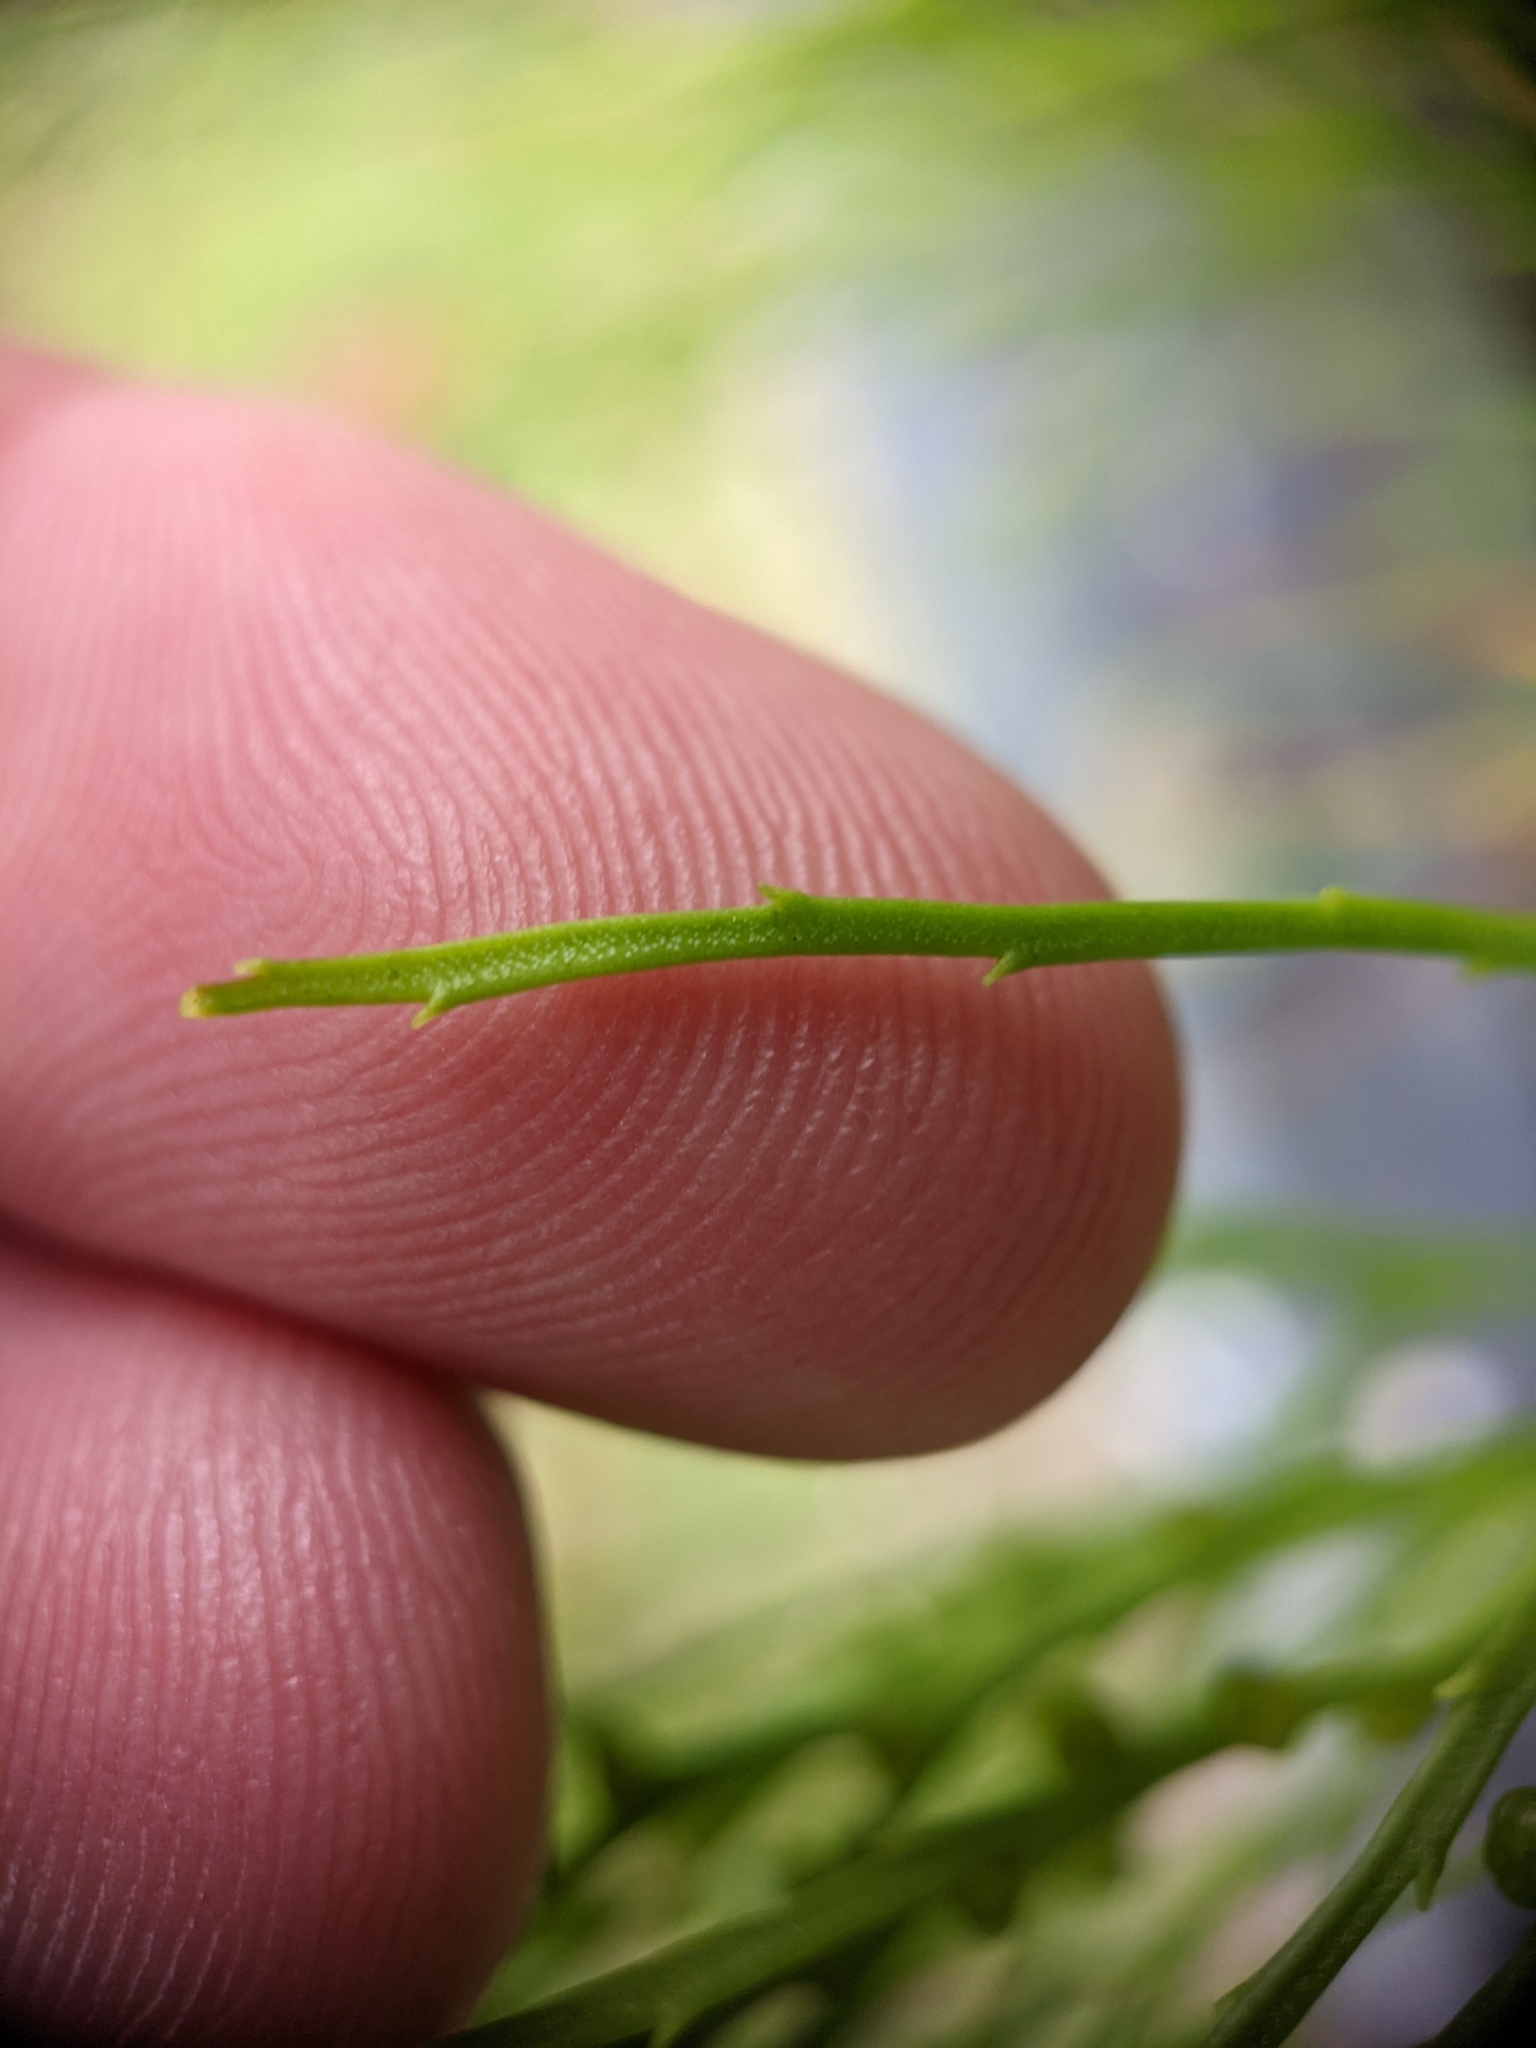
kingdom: Plantae
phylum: Tracheophyta
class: Polypodiopsida
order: Psilotales
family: Psilotaceae
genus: Psilotum
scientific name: Psilotum nudum
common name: Skeleton fork fern
